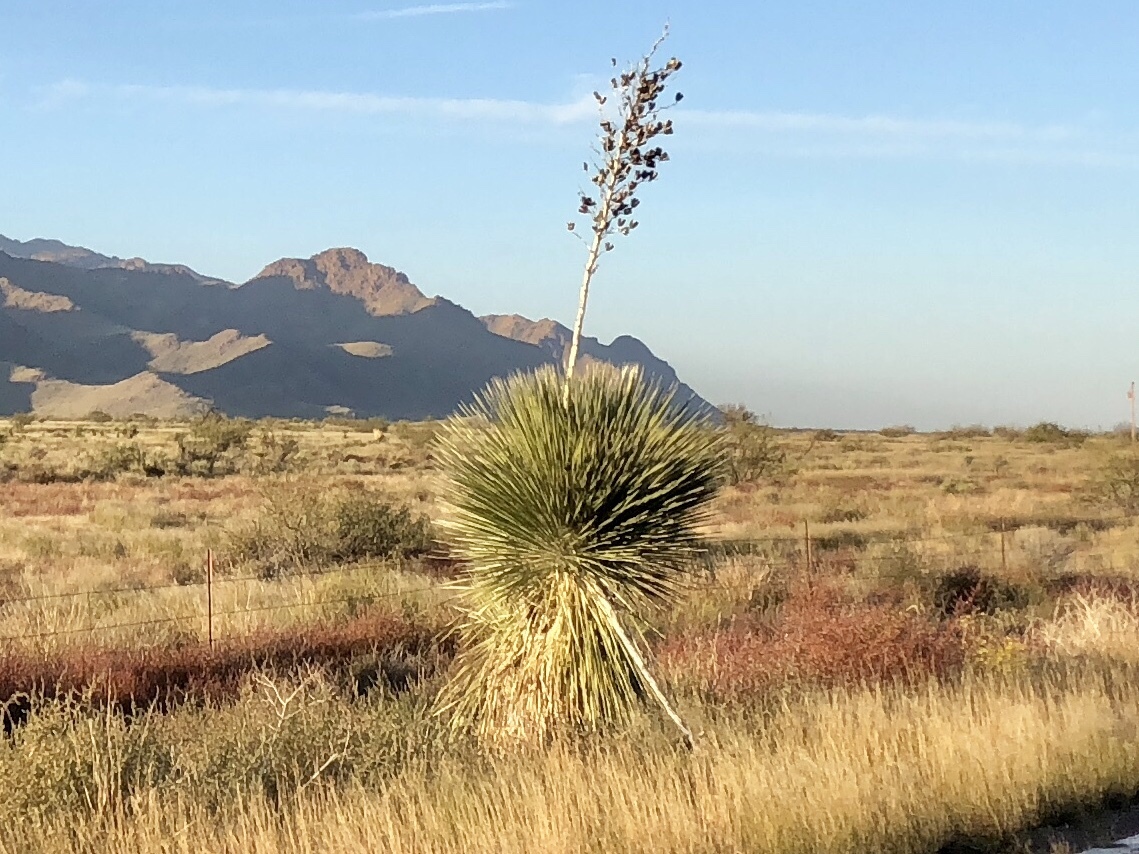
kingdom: Plantae
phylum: Tracheophyta
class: Liliopsida
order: Asparagales
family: Asparagaceae
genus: Yucca
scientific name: Yucca elata
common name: Palmella
